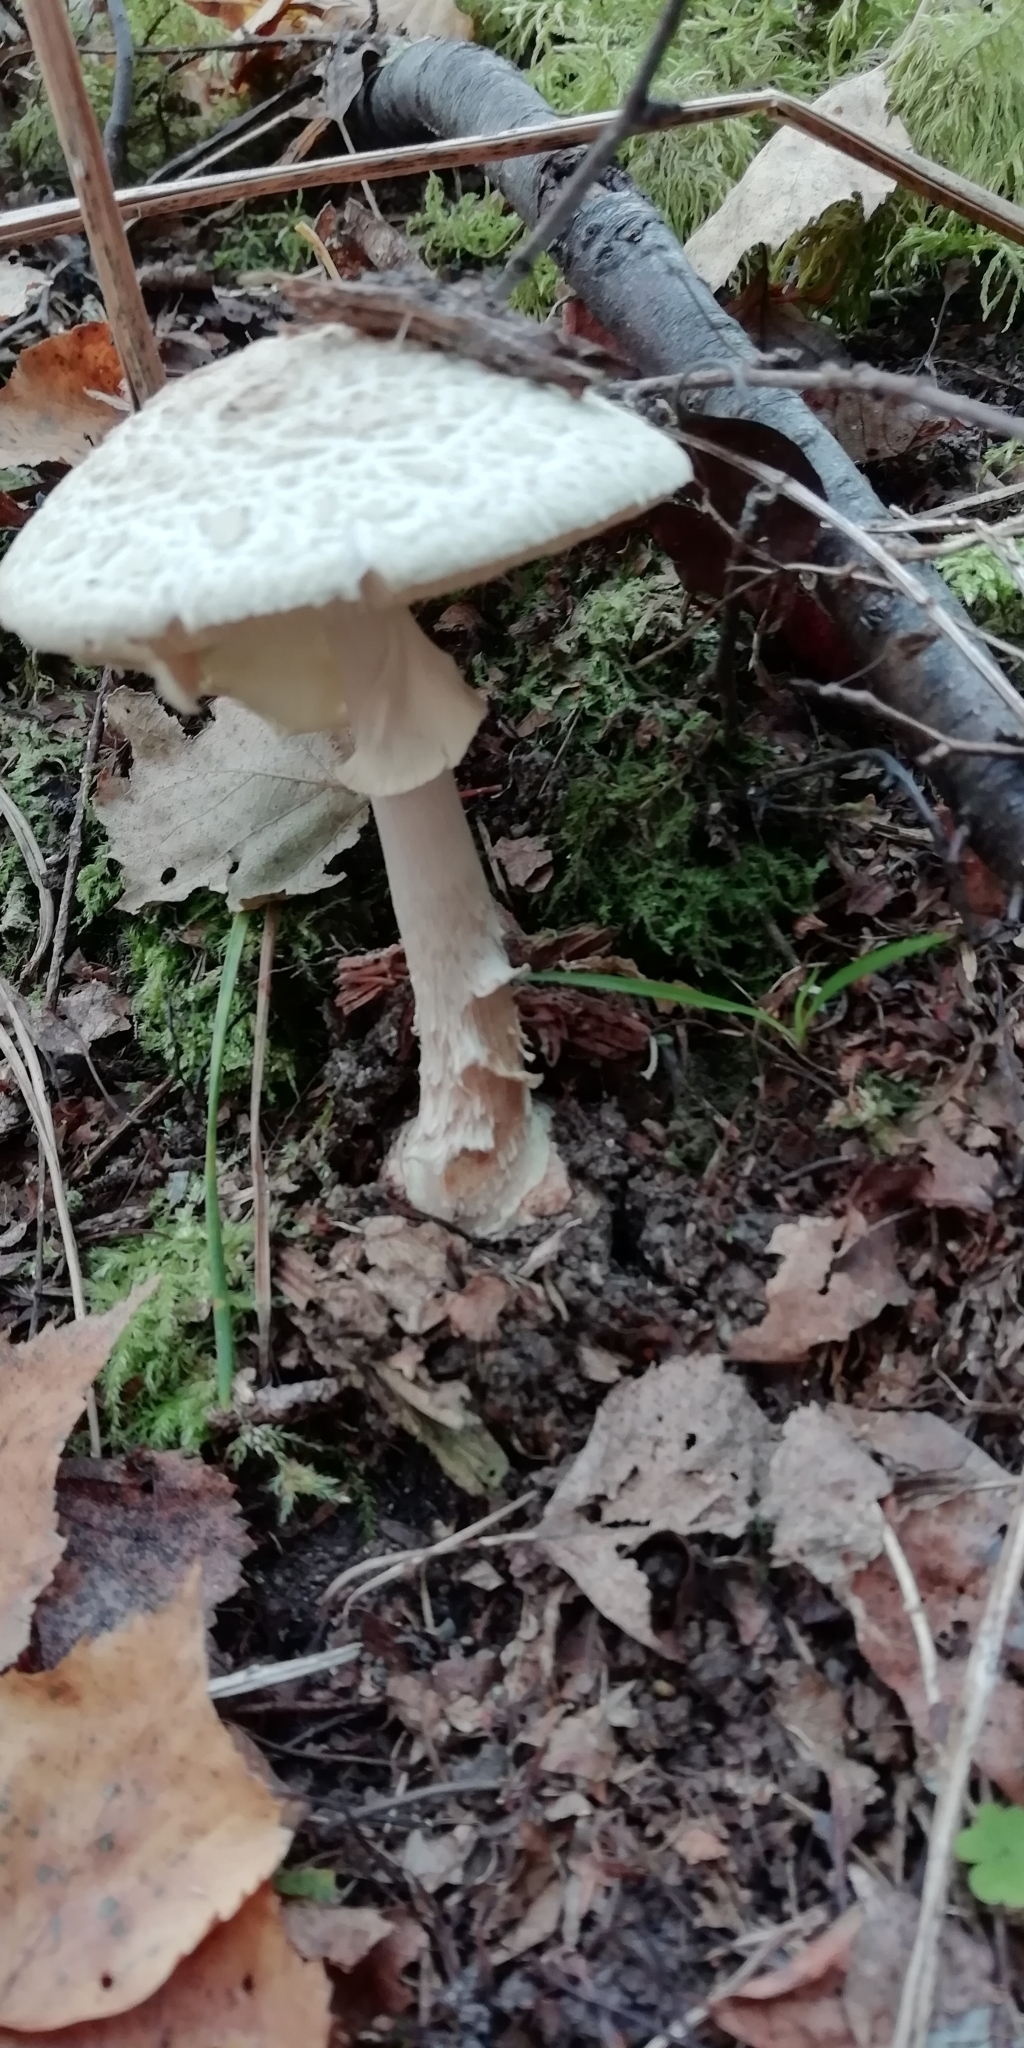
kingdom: Fungi
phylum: Basidiomycota
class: Agaricomycetes
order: Agaricales
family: Amanitaceae
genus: Amanita
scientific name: Amanita citrina
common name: False death-cap
